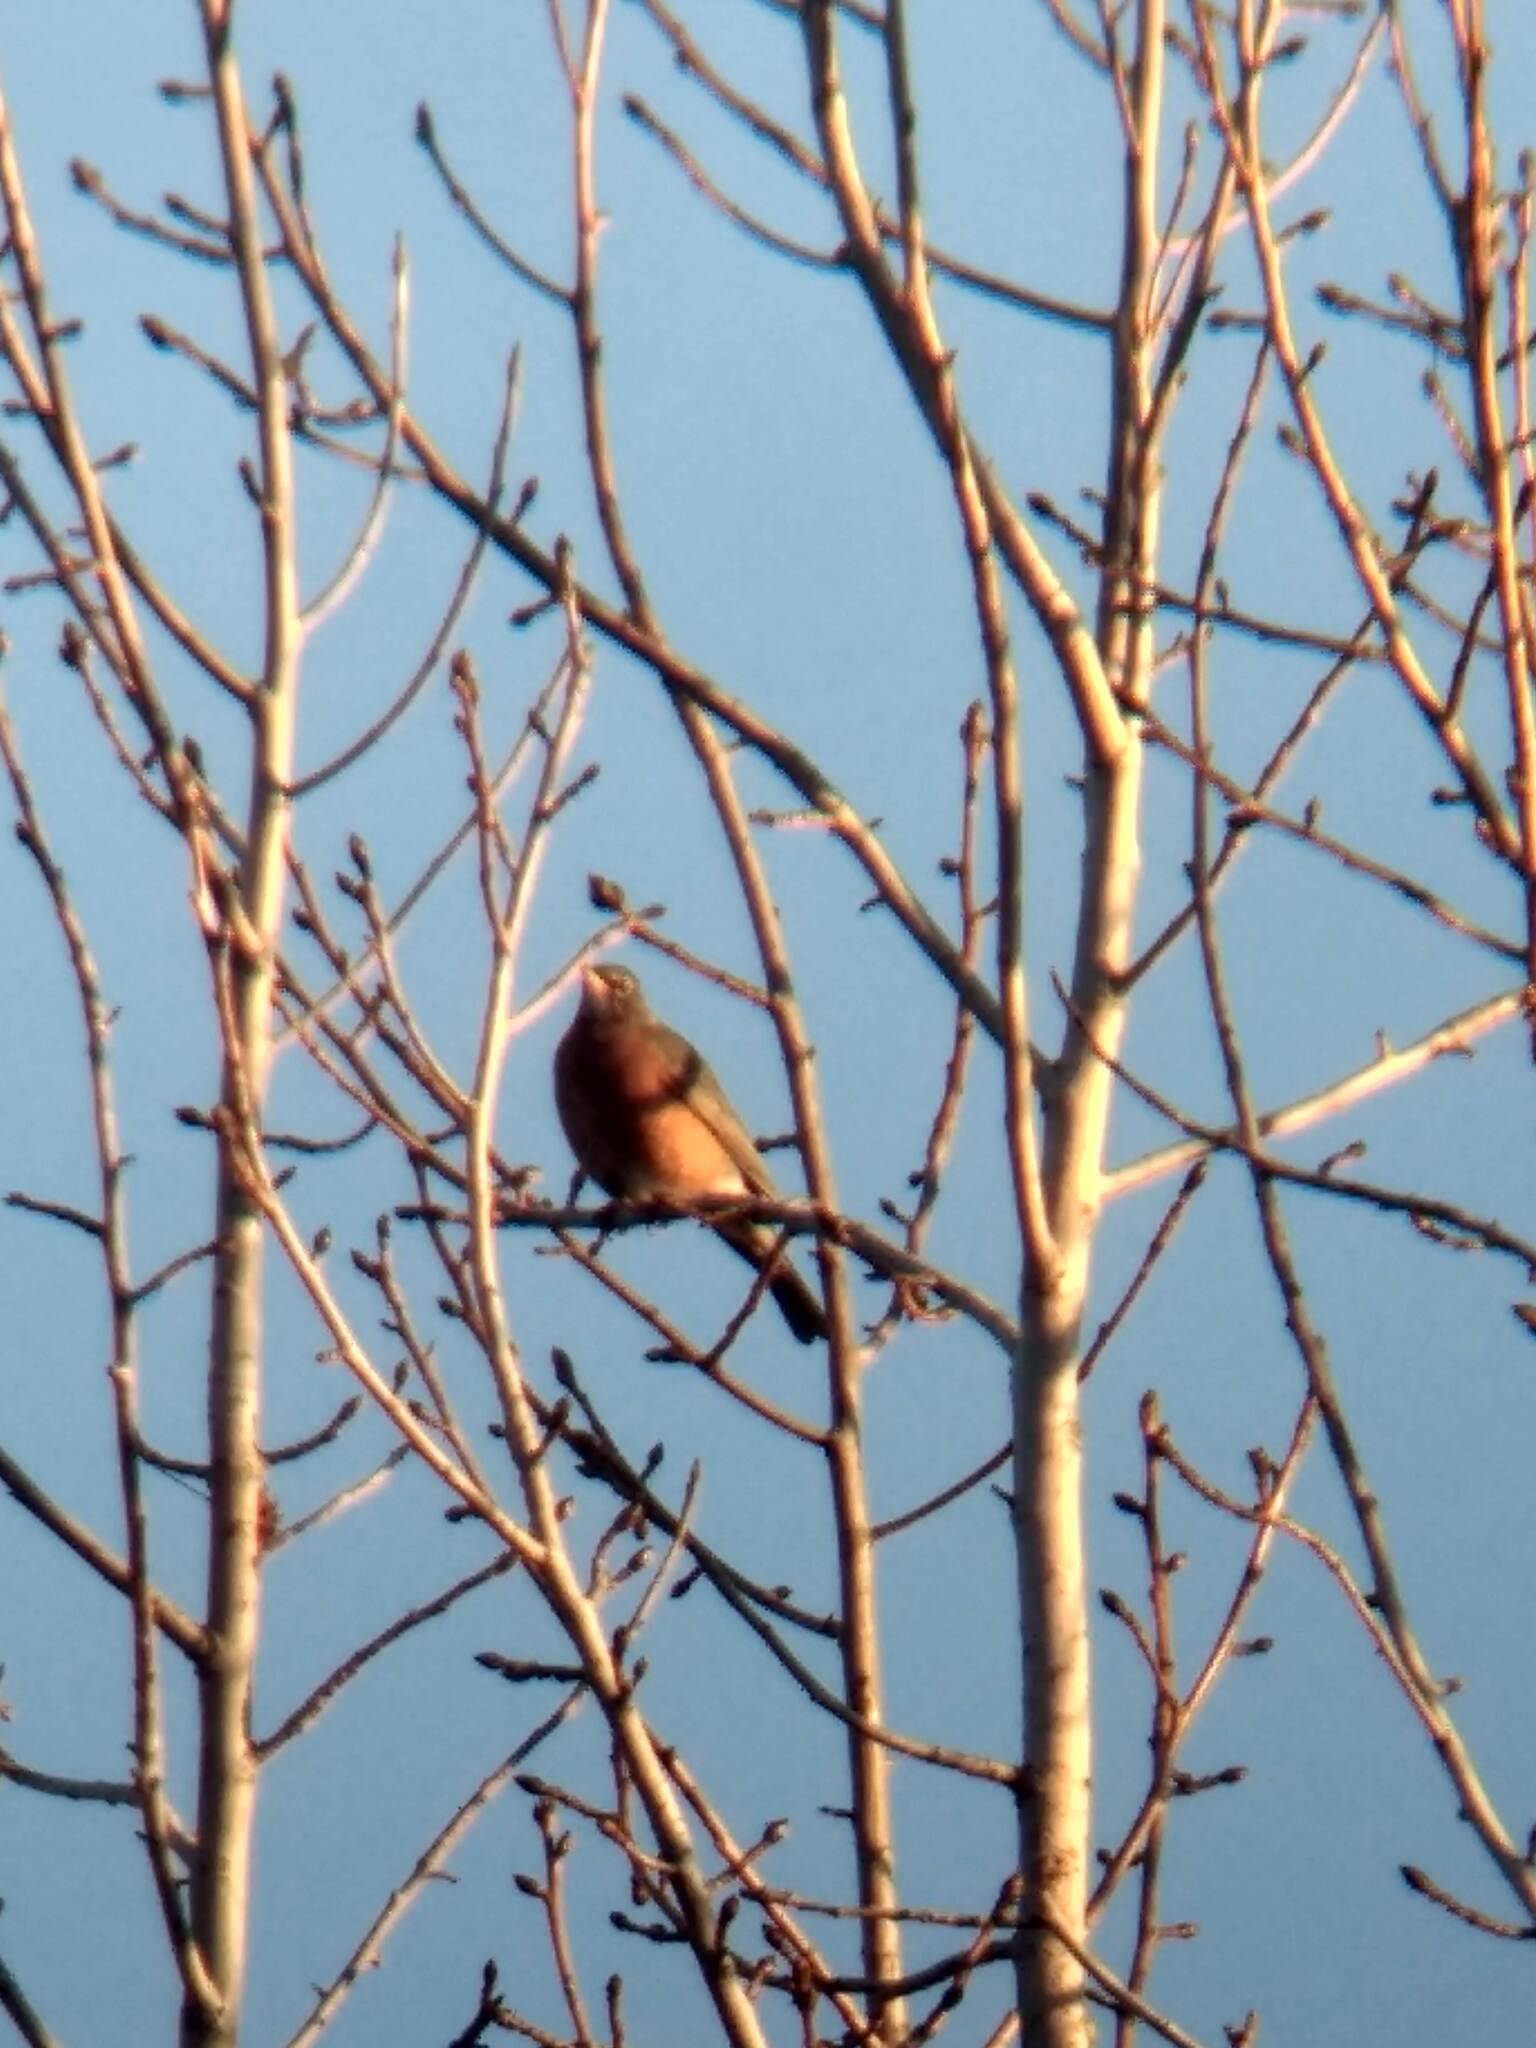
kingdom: Animalia
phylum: Chordata
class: Aves
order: Passeriformes
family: Turdidae
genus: Turdus
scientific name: Turdus migratorius
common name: American robin
